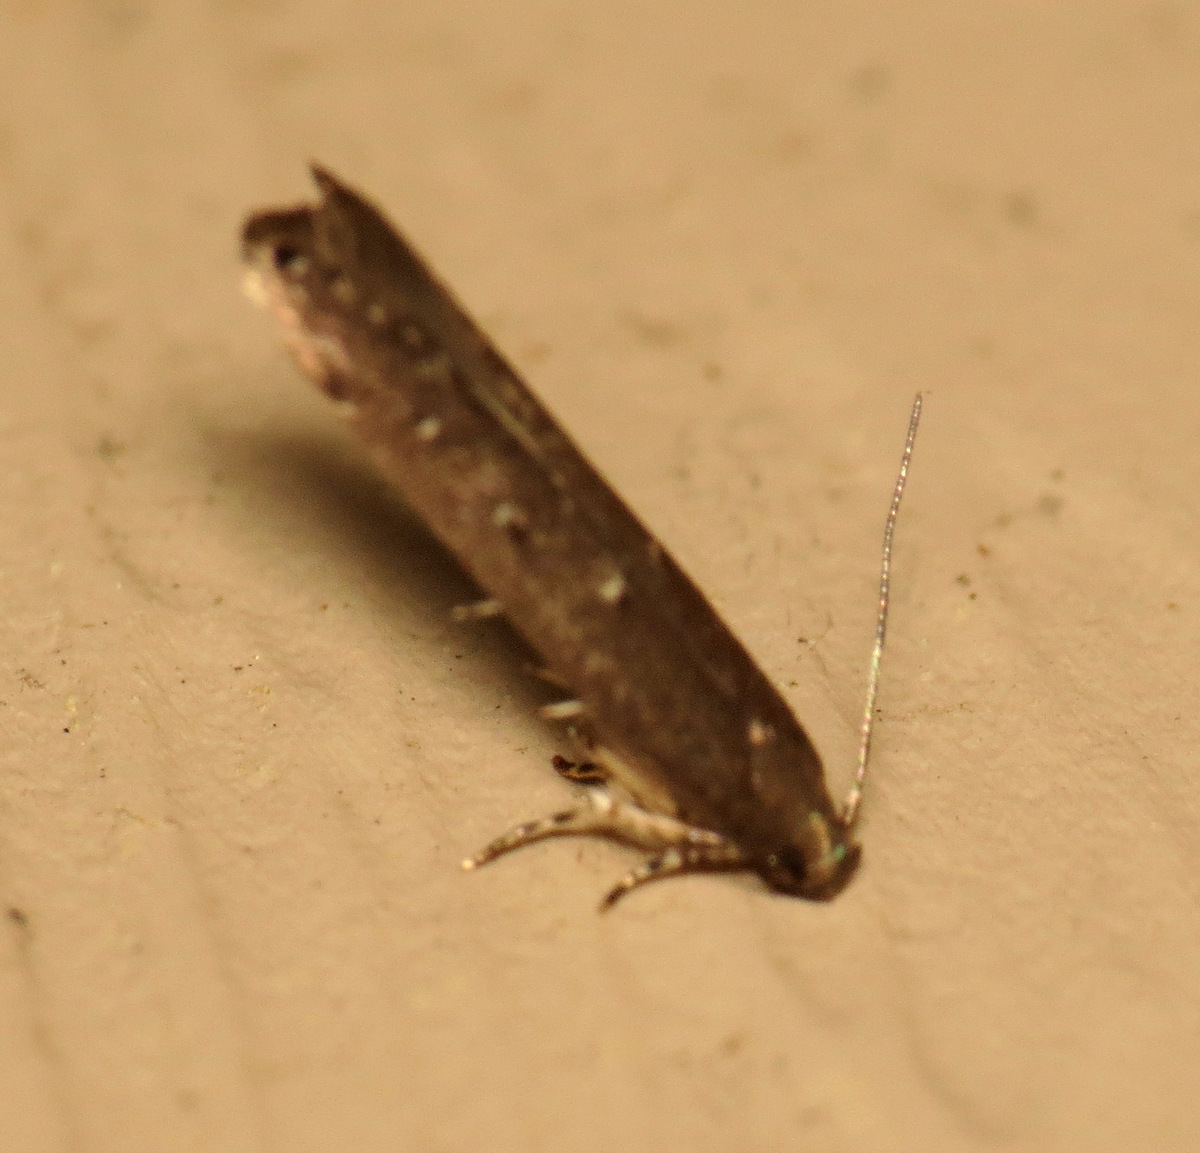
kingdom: Animalia
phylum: Arthropoda
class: Insecta
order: Lepidoptera
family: Cosmopterigidae
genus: Ithome
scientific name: Ithome erransella
